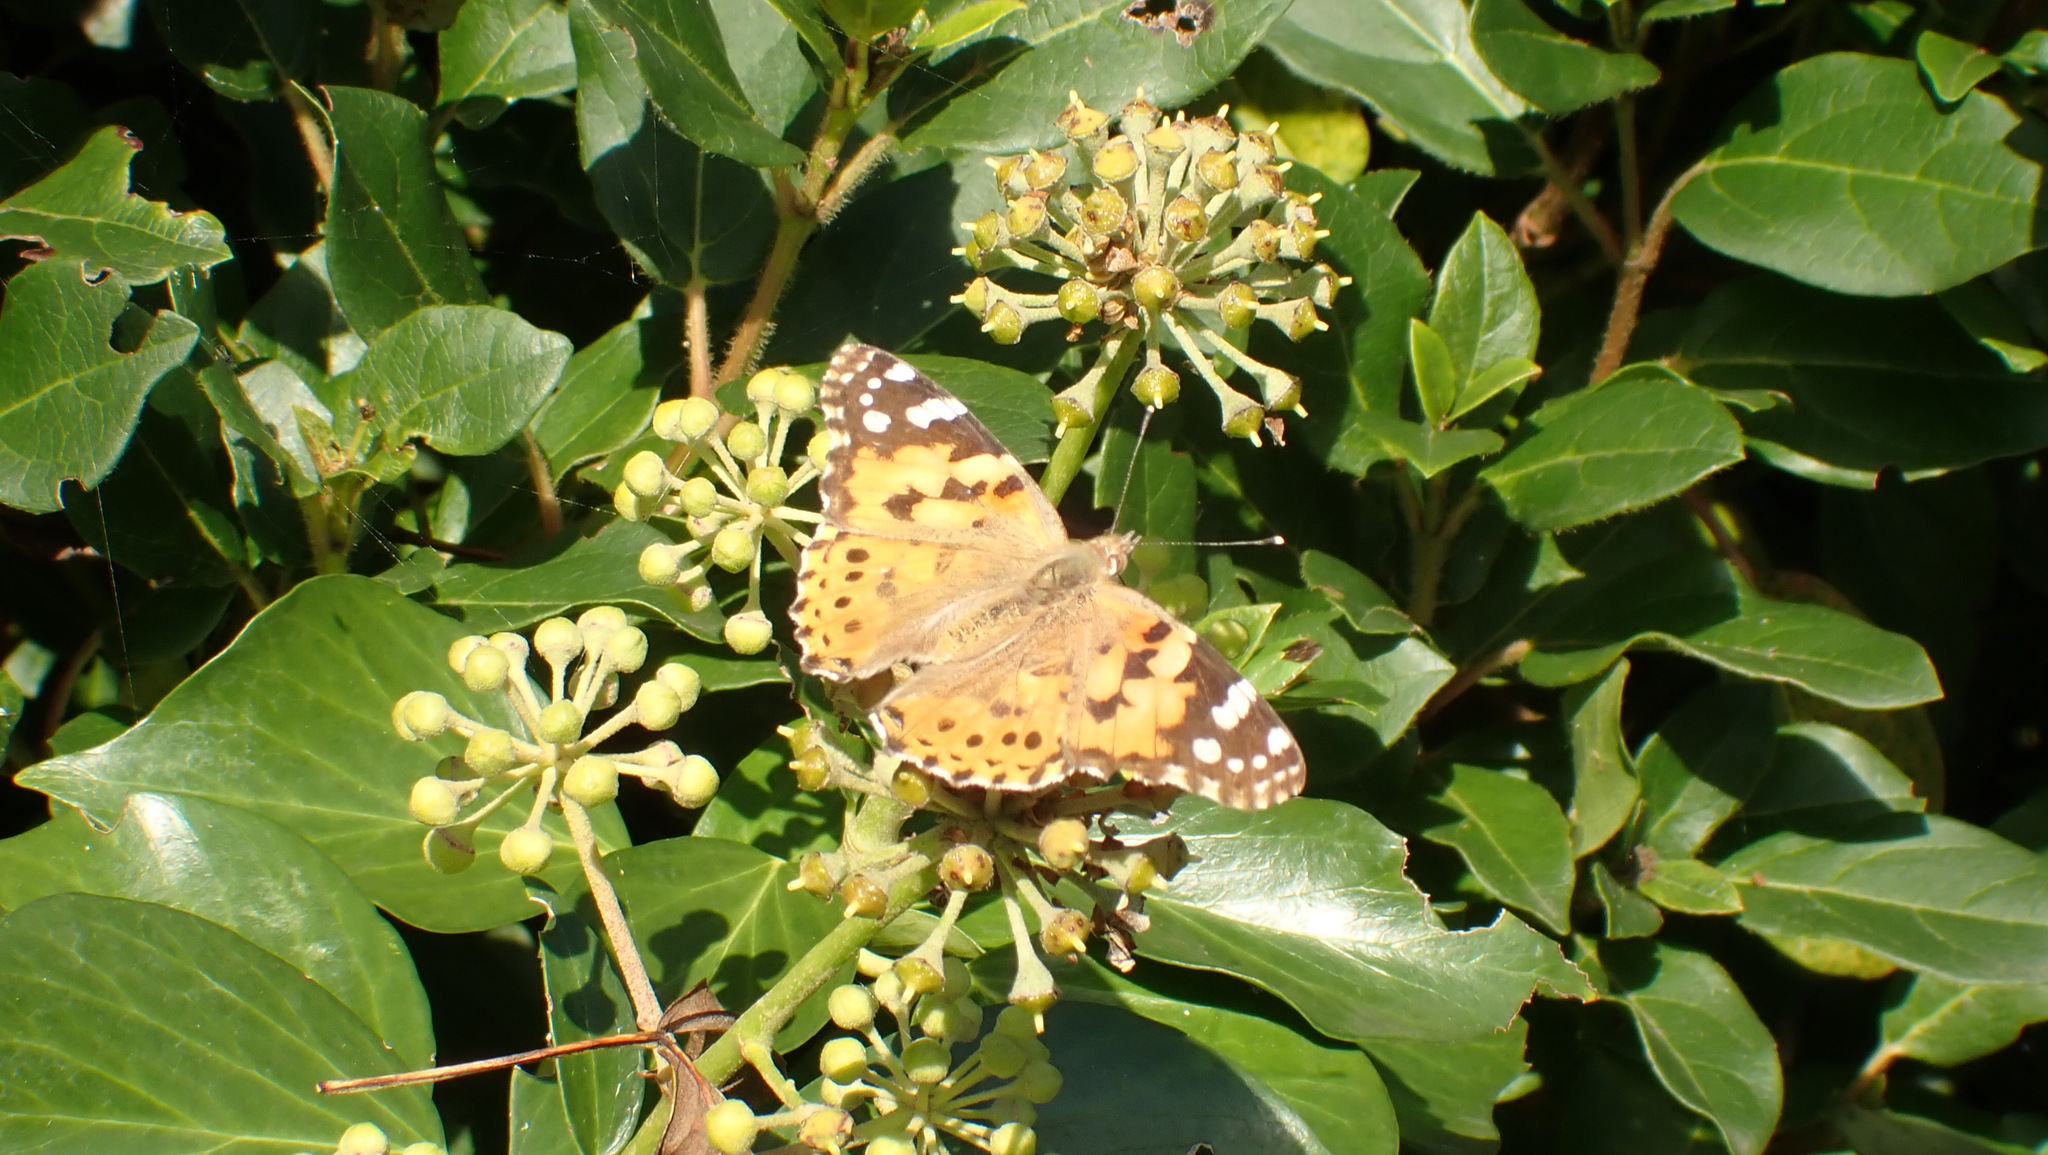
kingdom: Animalia
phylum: Arthropoda
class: Insecta
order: Lepidoptera
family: Nymphalidae
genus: Vanessa
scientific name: Vanessa cardui
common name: Painted lady
